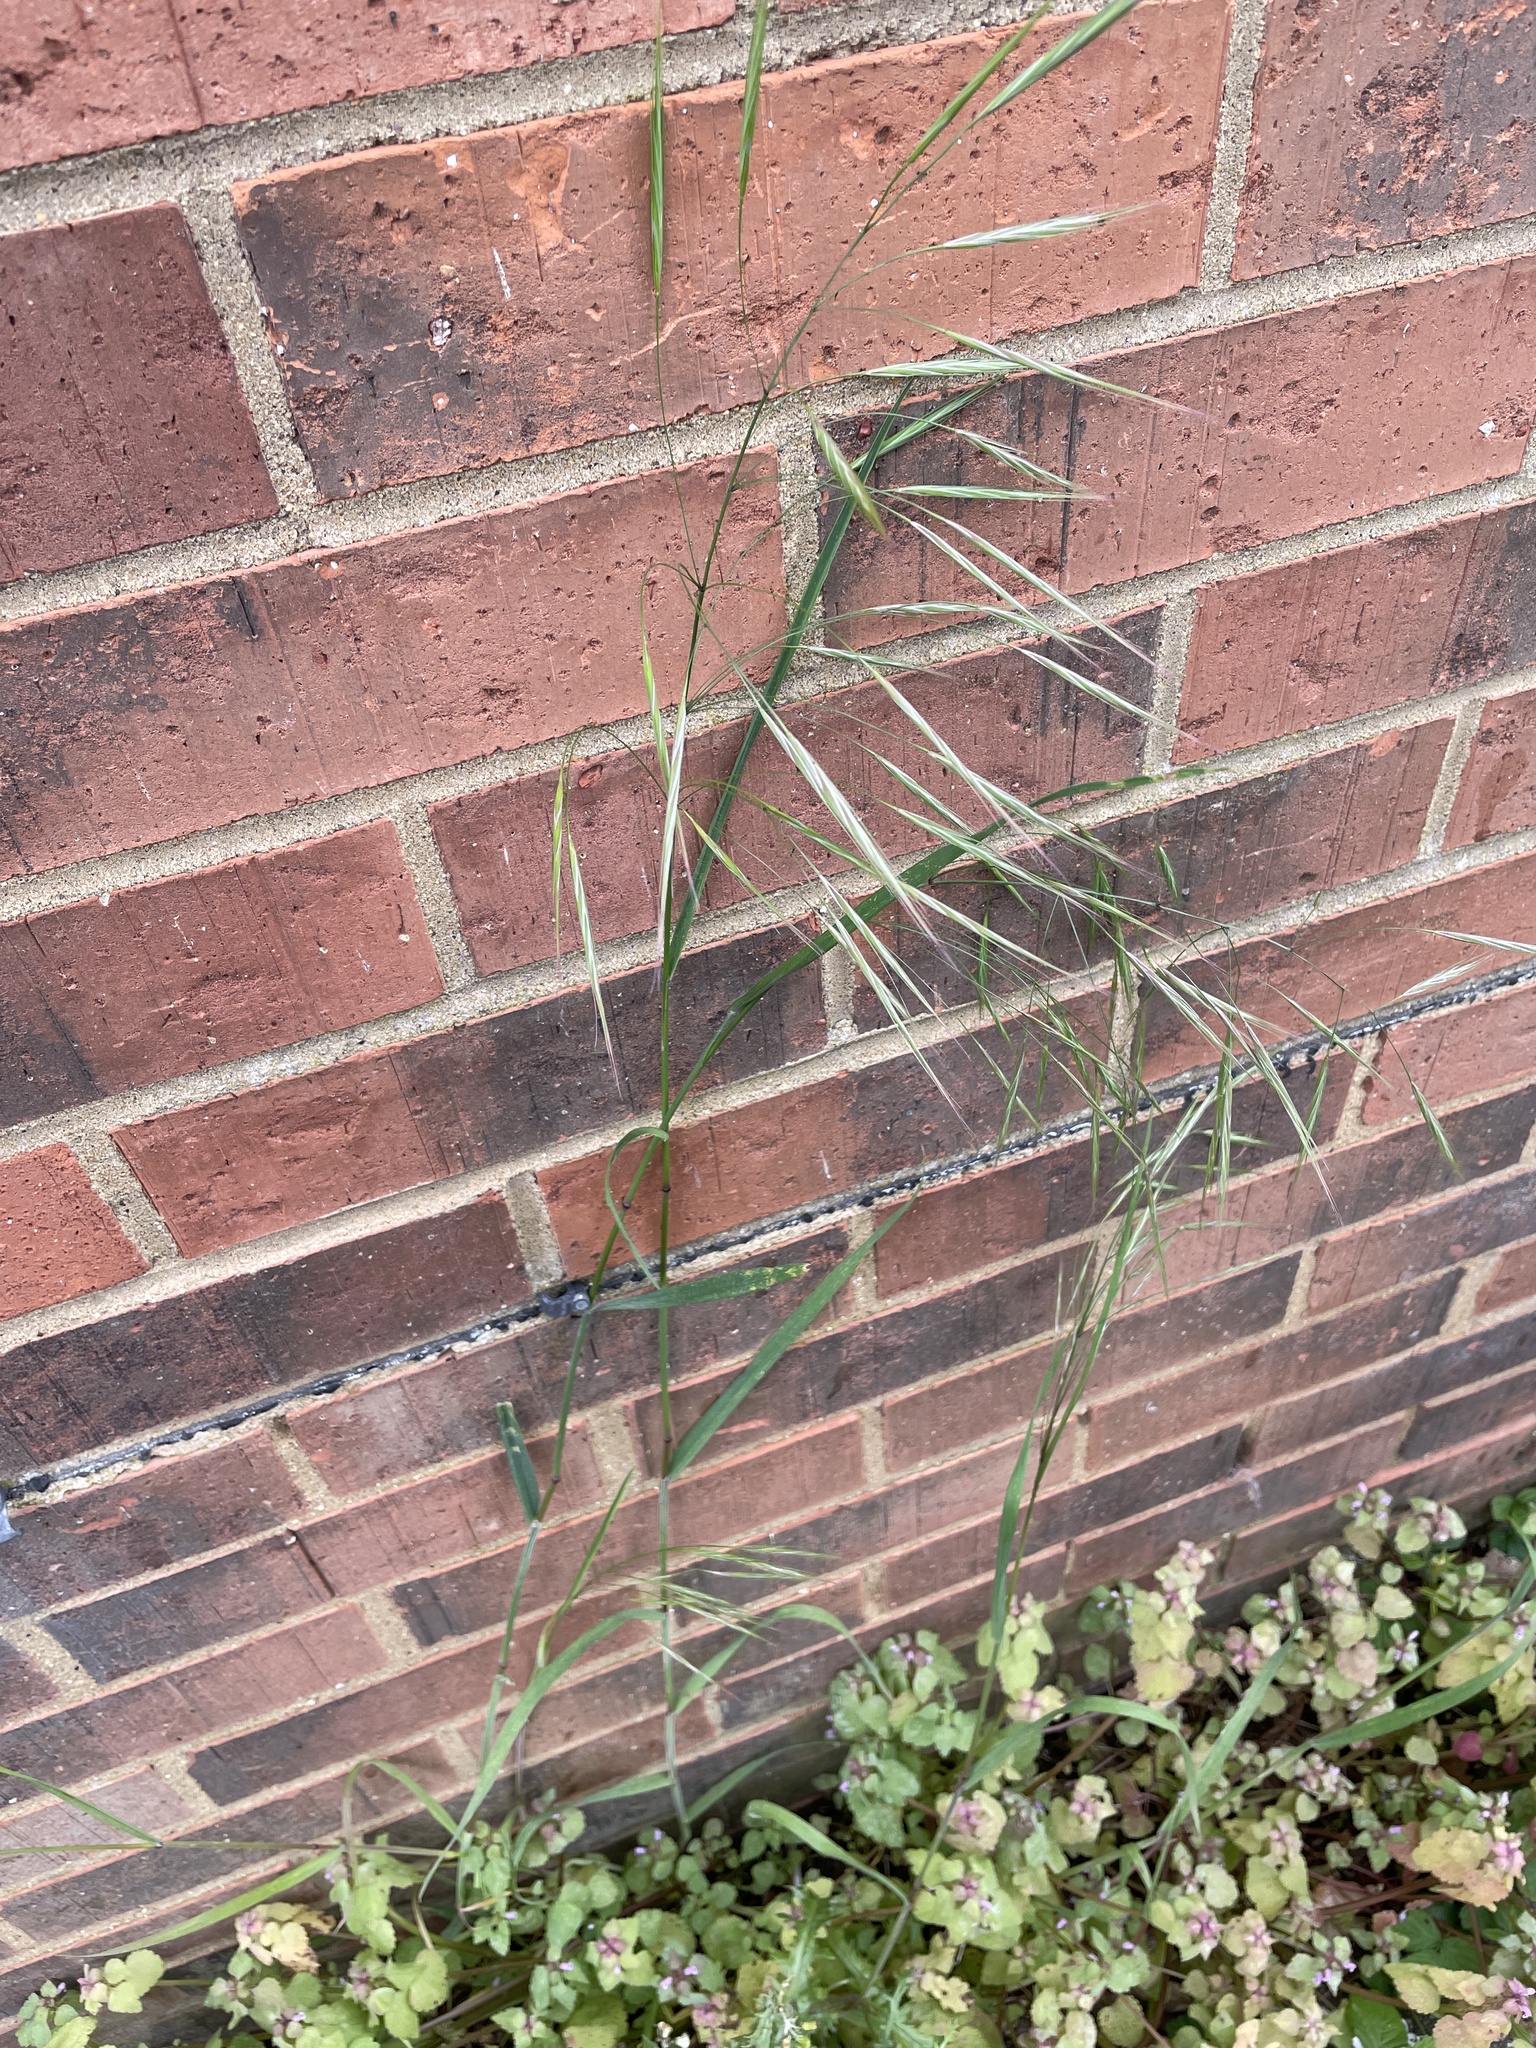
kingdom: Plantae
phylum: Tracheophyta
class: Liliopsida
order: Poales
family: Poaceae
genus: Bromus
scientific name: Bromus sterilis
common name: Poverty brome
